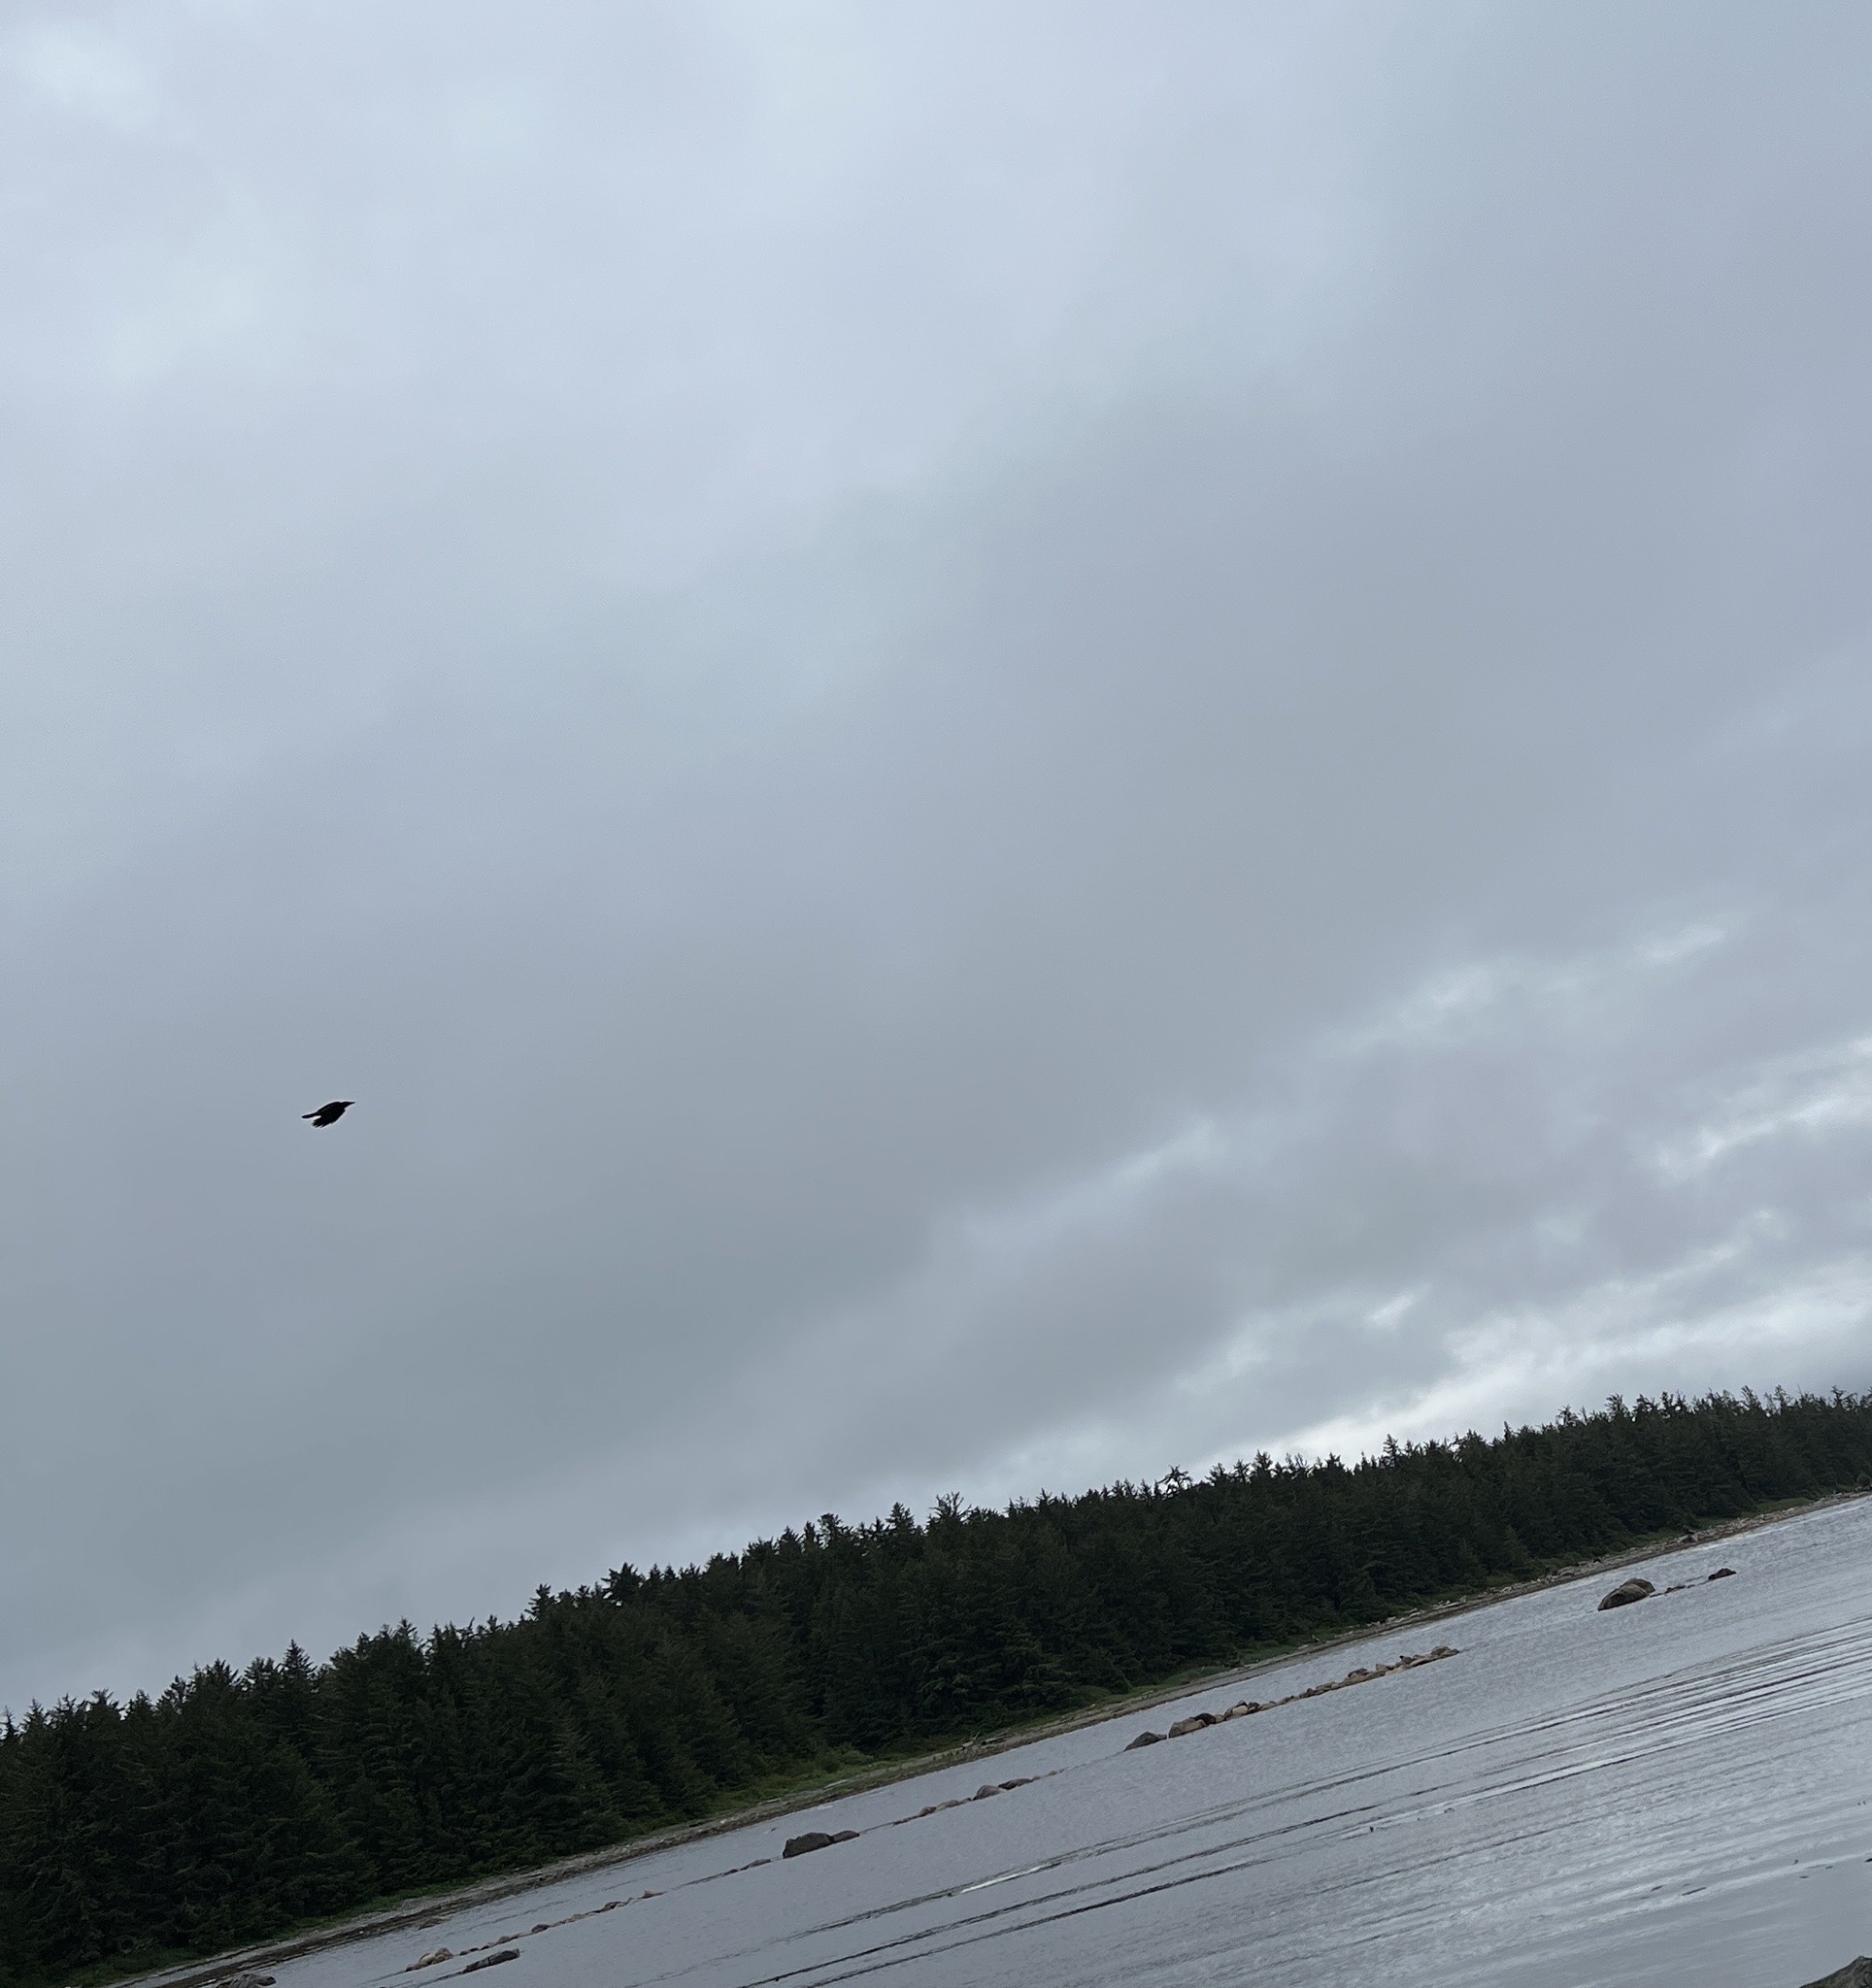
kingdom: Animalia
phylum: Chordata
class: Aves
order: Passeriformes
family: Corvidae
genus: Corvus
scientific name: Corvus brachyrhynchos
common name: American crow
